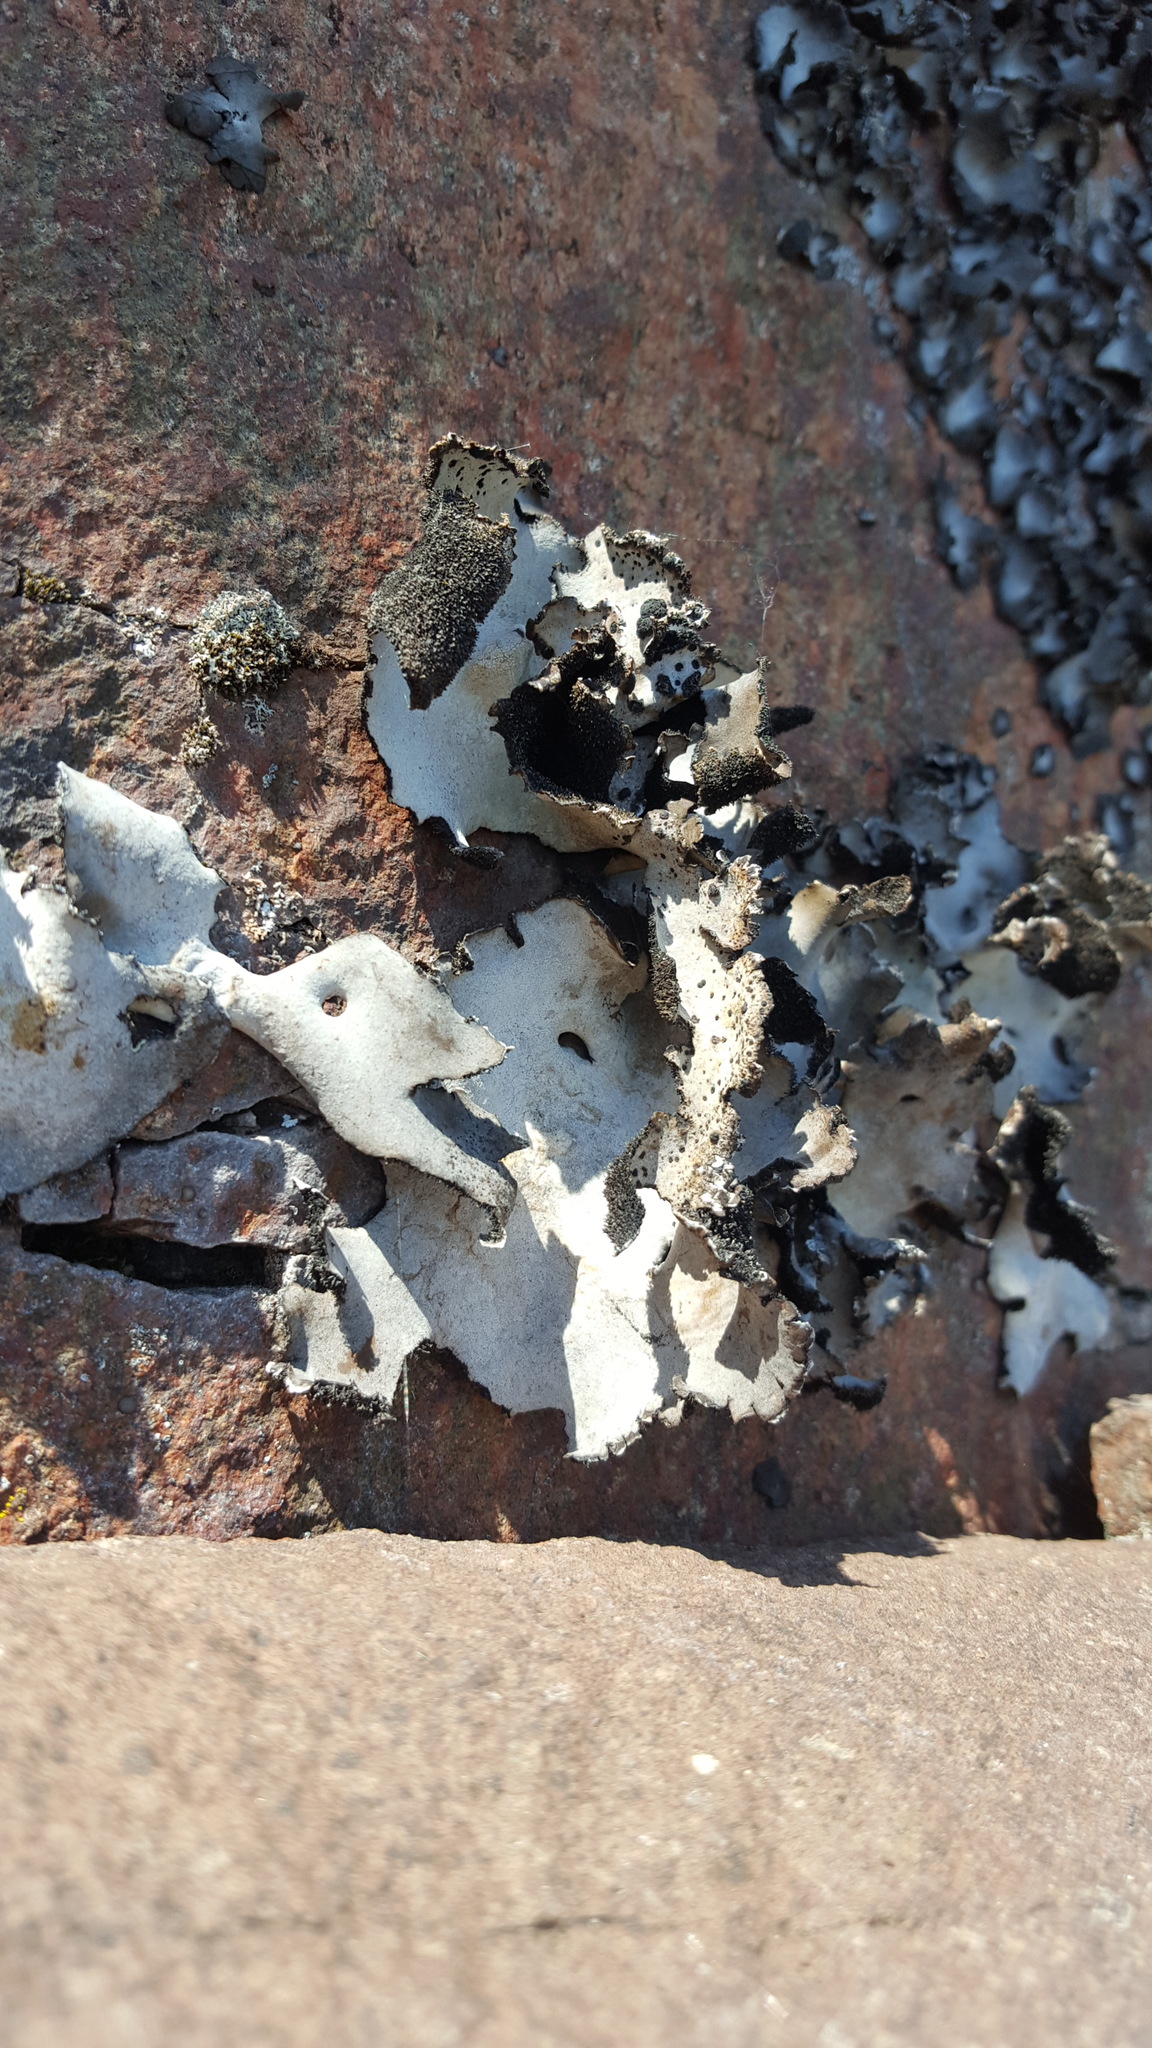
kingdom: Fungi
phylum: Ascomycota
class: Lecanoromycetes
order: Umbilicariales
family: Umbilicariaceae
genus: Umbilicaria
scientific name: Umbilicaria americana
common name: Frosted rock tripe
